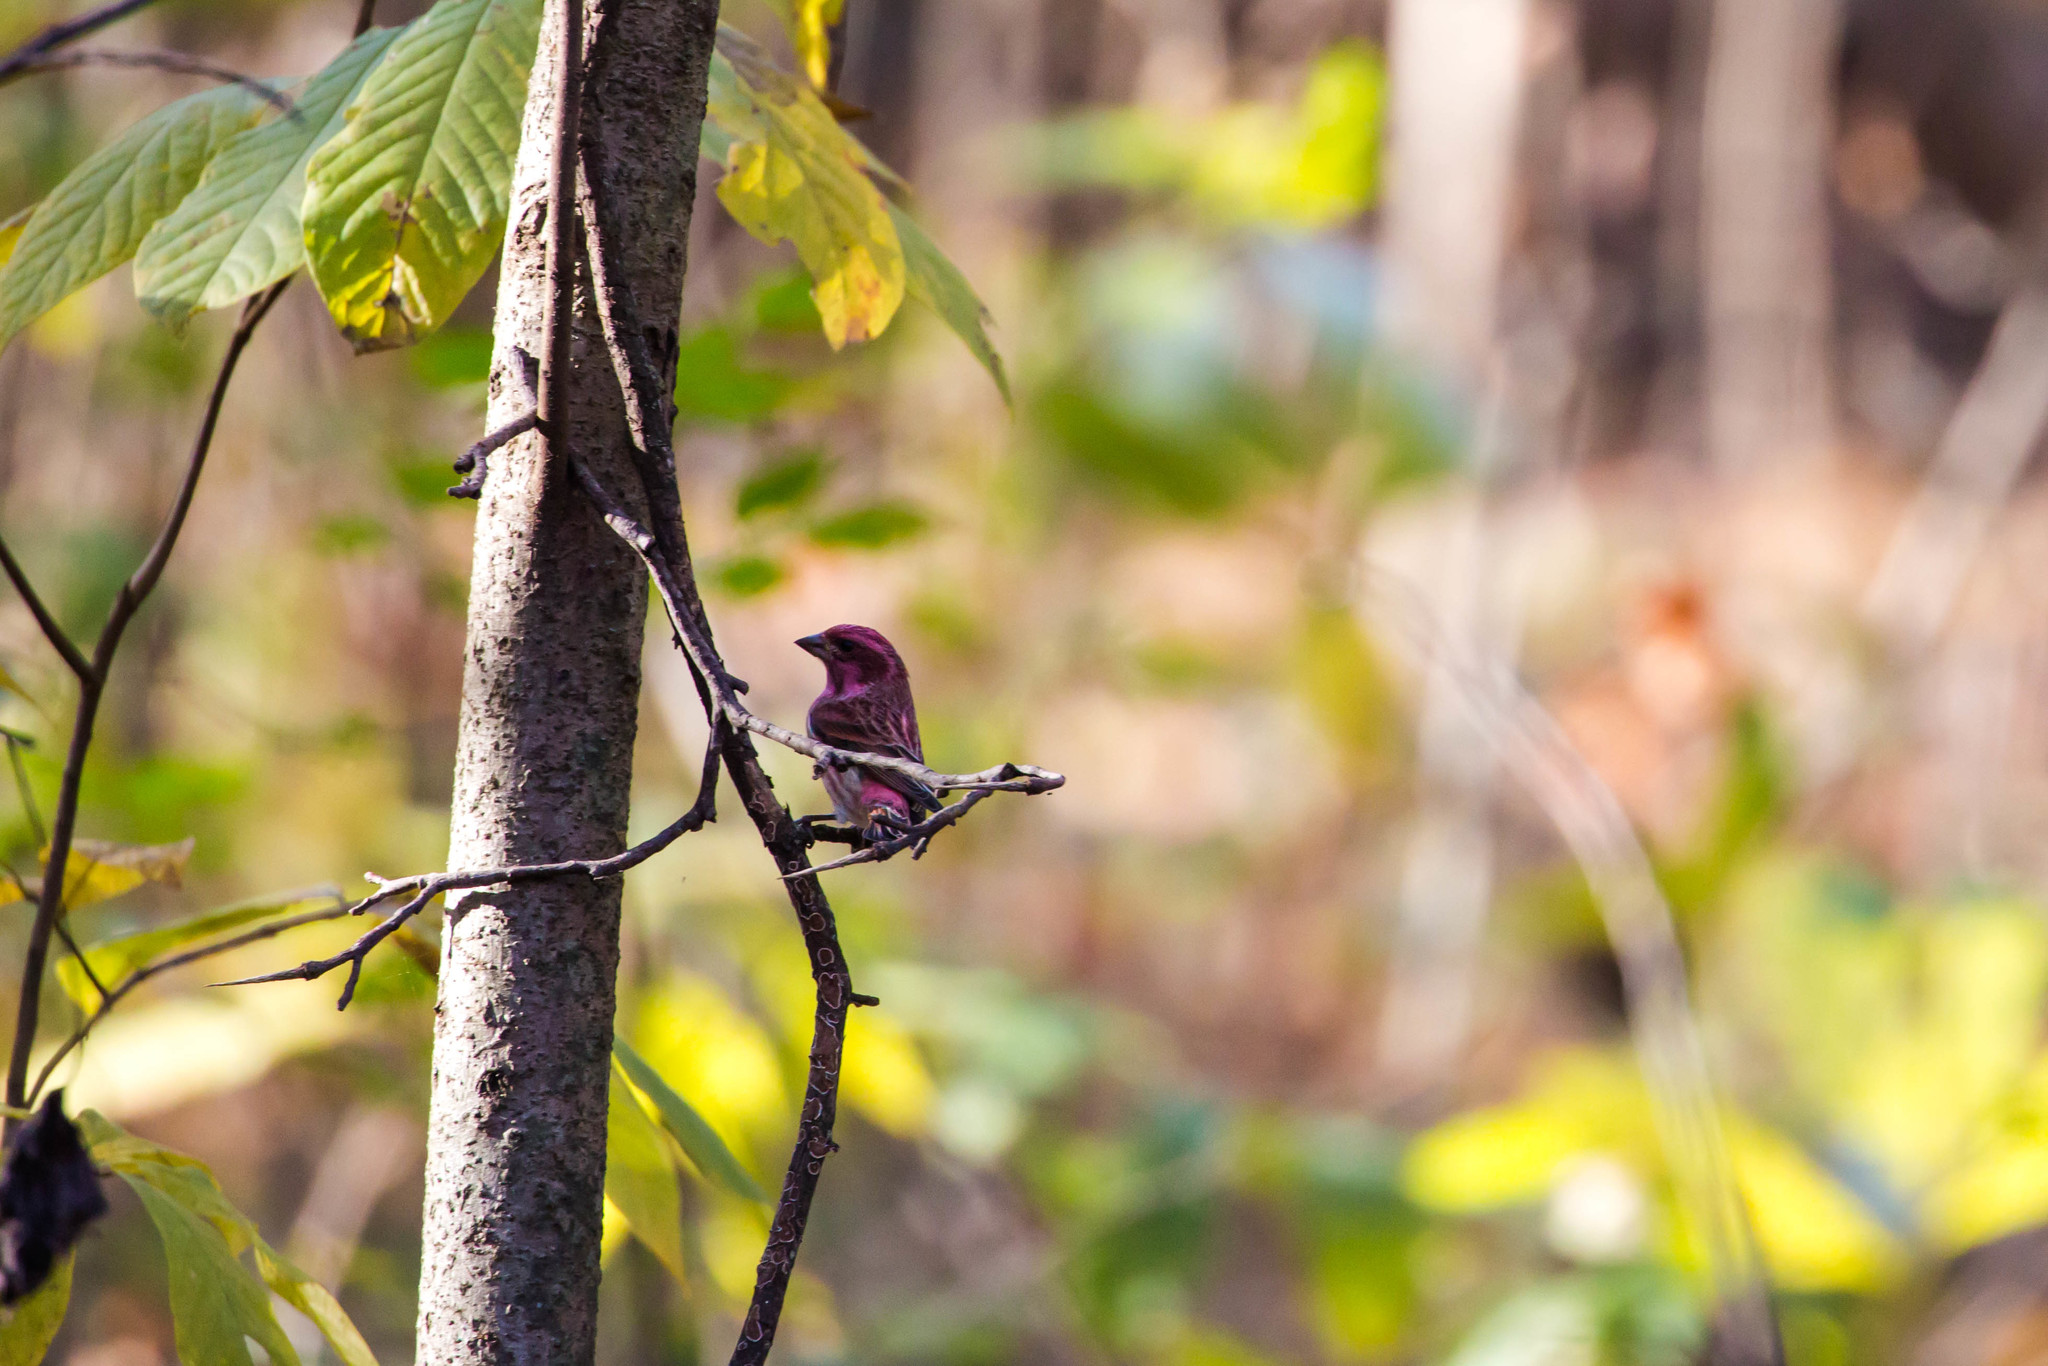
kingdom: Animalia
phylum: Chordata
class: Aves
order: Passeriformes
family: Fringillidae
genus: Haemorhous
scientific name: Haemorhous purpureus
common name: Purple finch
